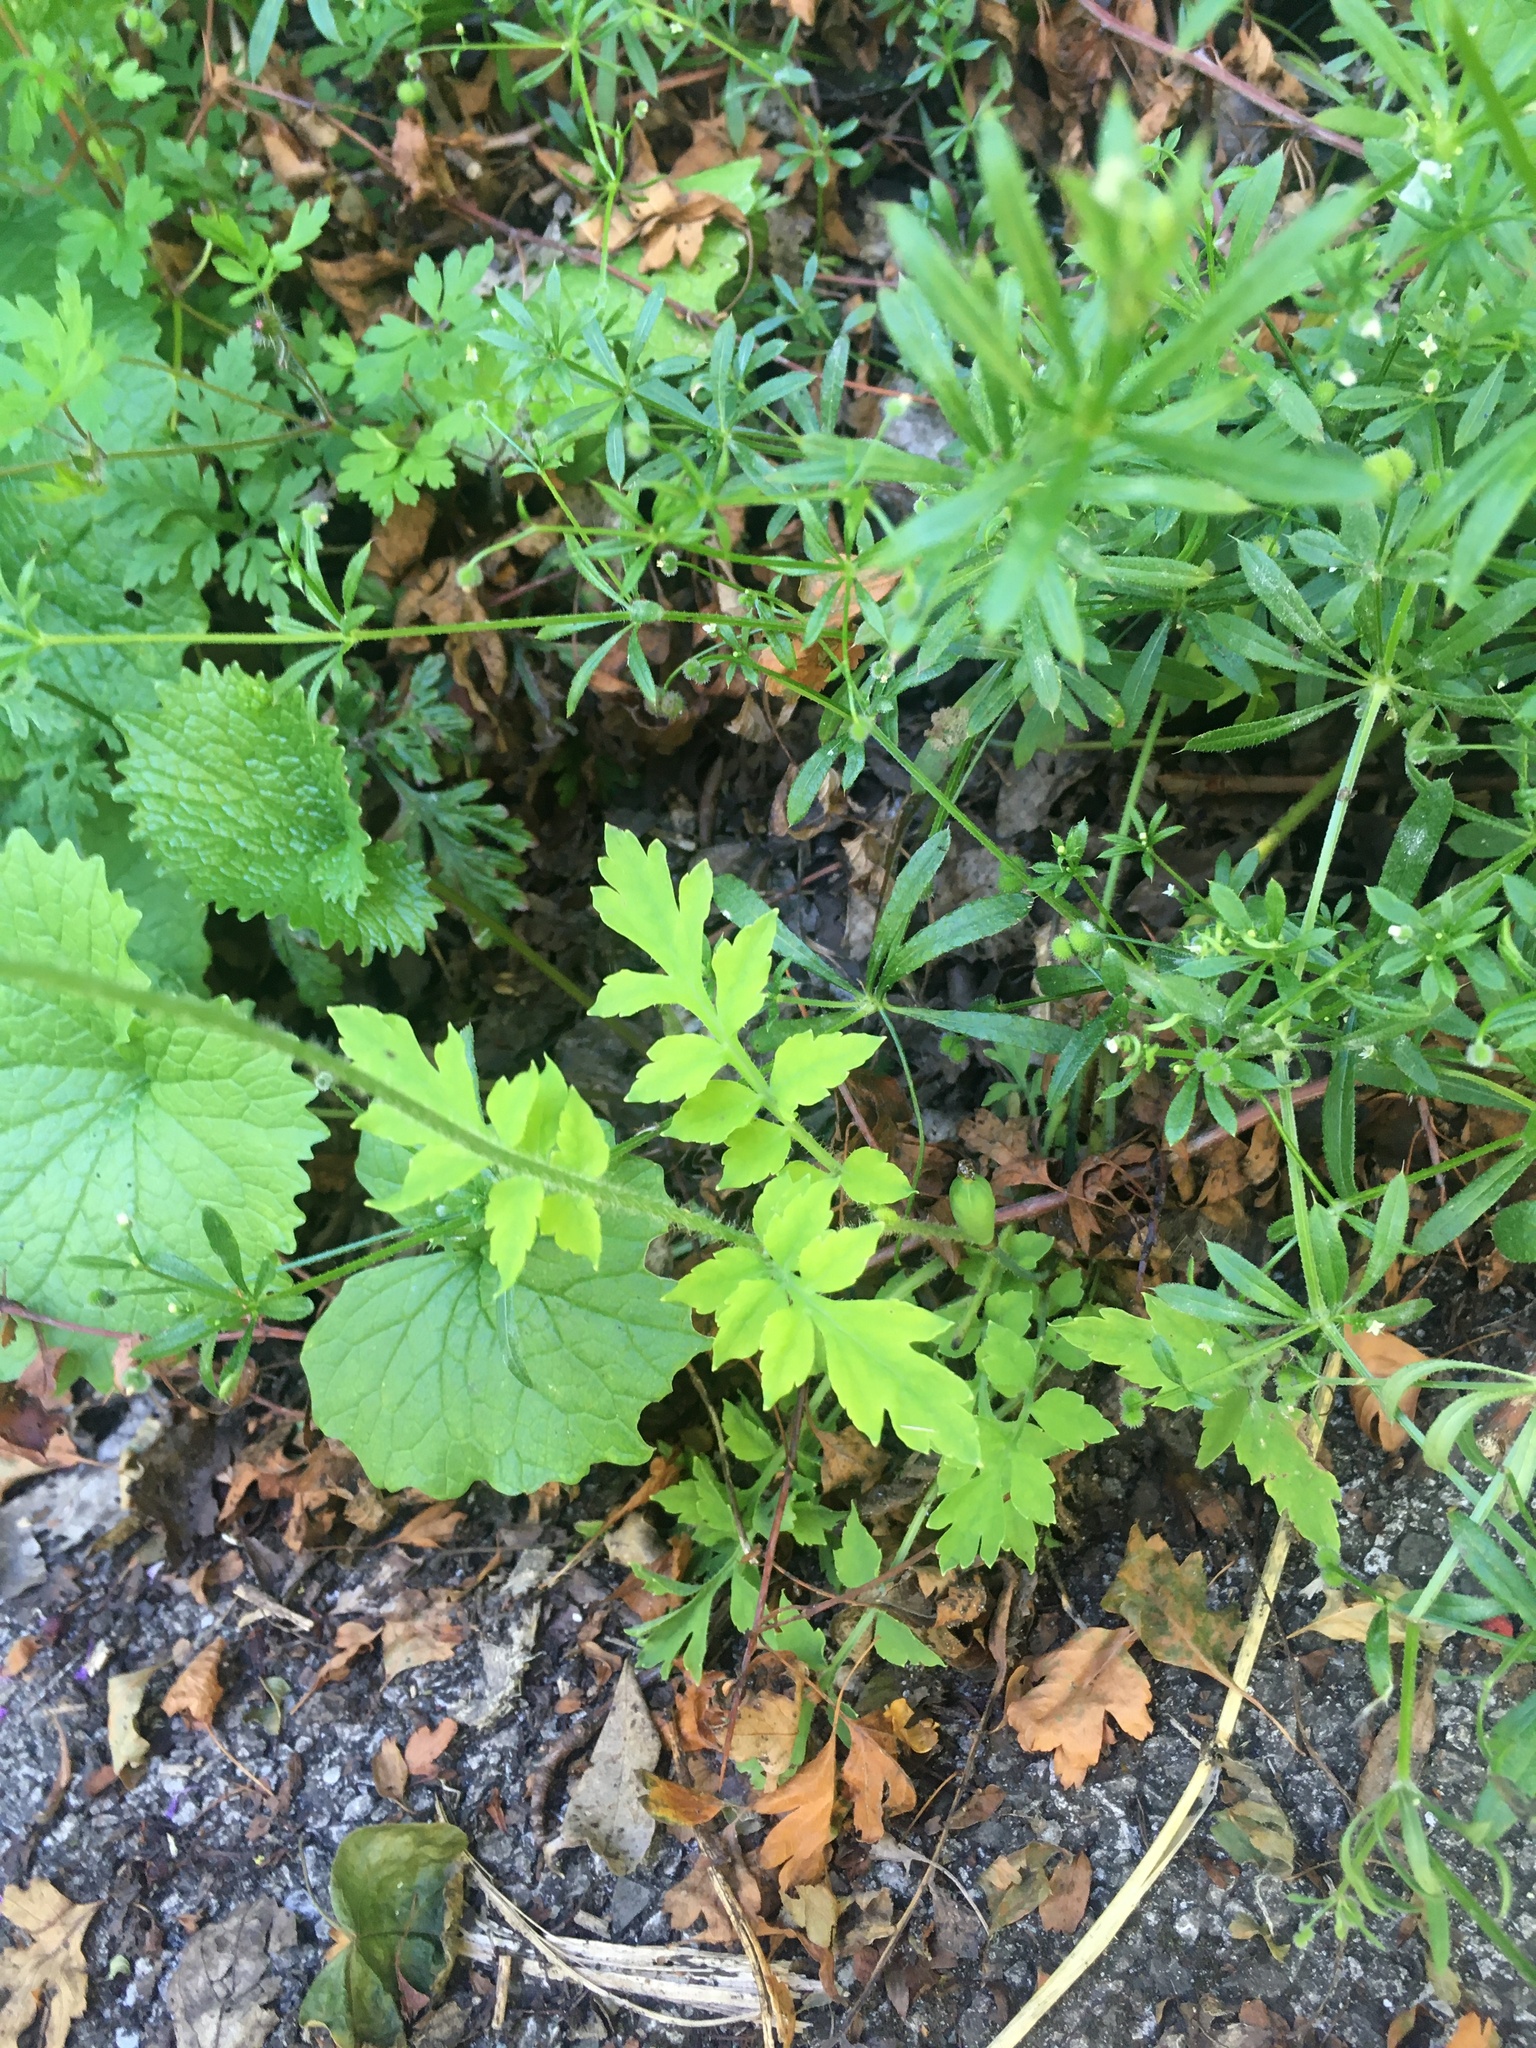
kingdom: Plantae
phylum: Tracheophyta
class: Magnoliopsida
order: Ranunculales
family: Papaveraceae
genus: Papaver
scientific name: Papaver cambricum
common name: Poppy
